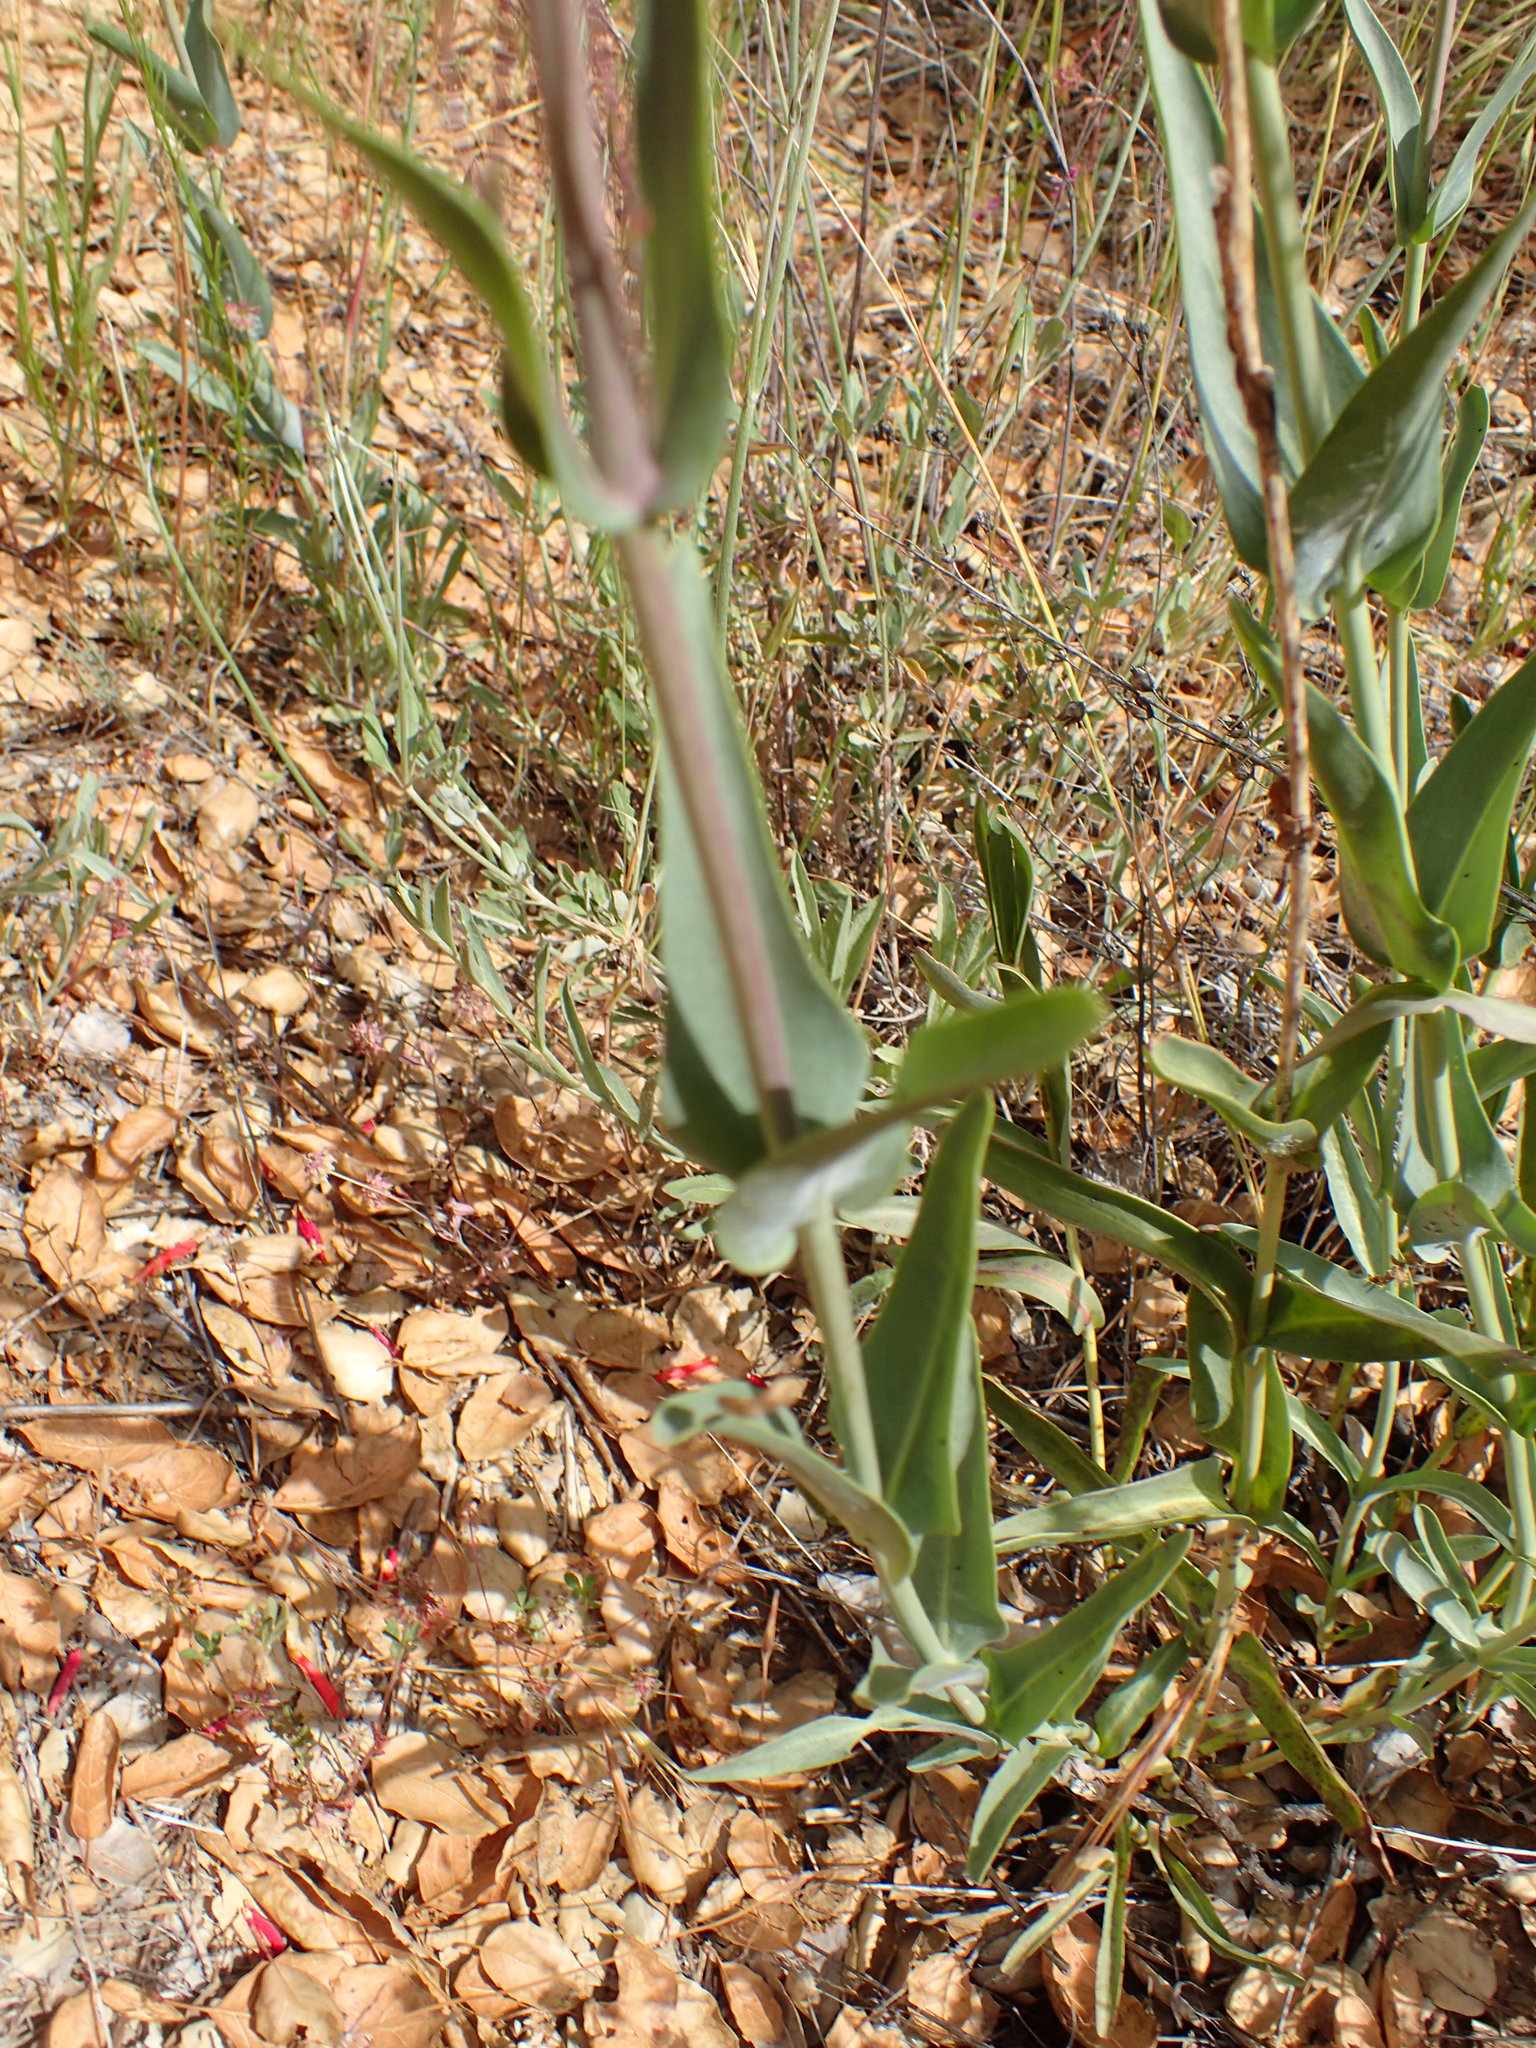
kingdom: Plantae
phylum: Tracheophyta
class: Magnoliopsida
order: Lamiales
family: Plantaginaceae
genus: Penstemon
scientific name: Penstemon centranthifolius
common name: Scarlet bugler
